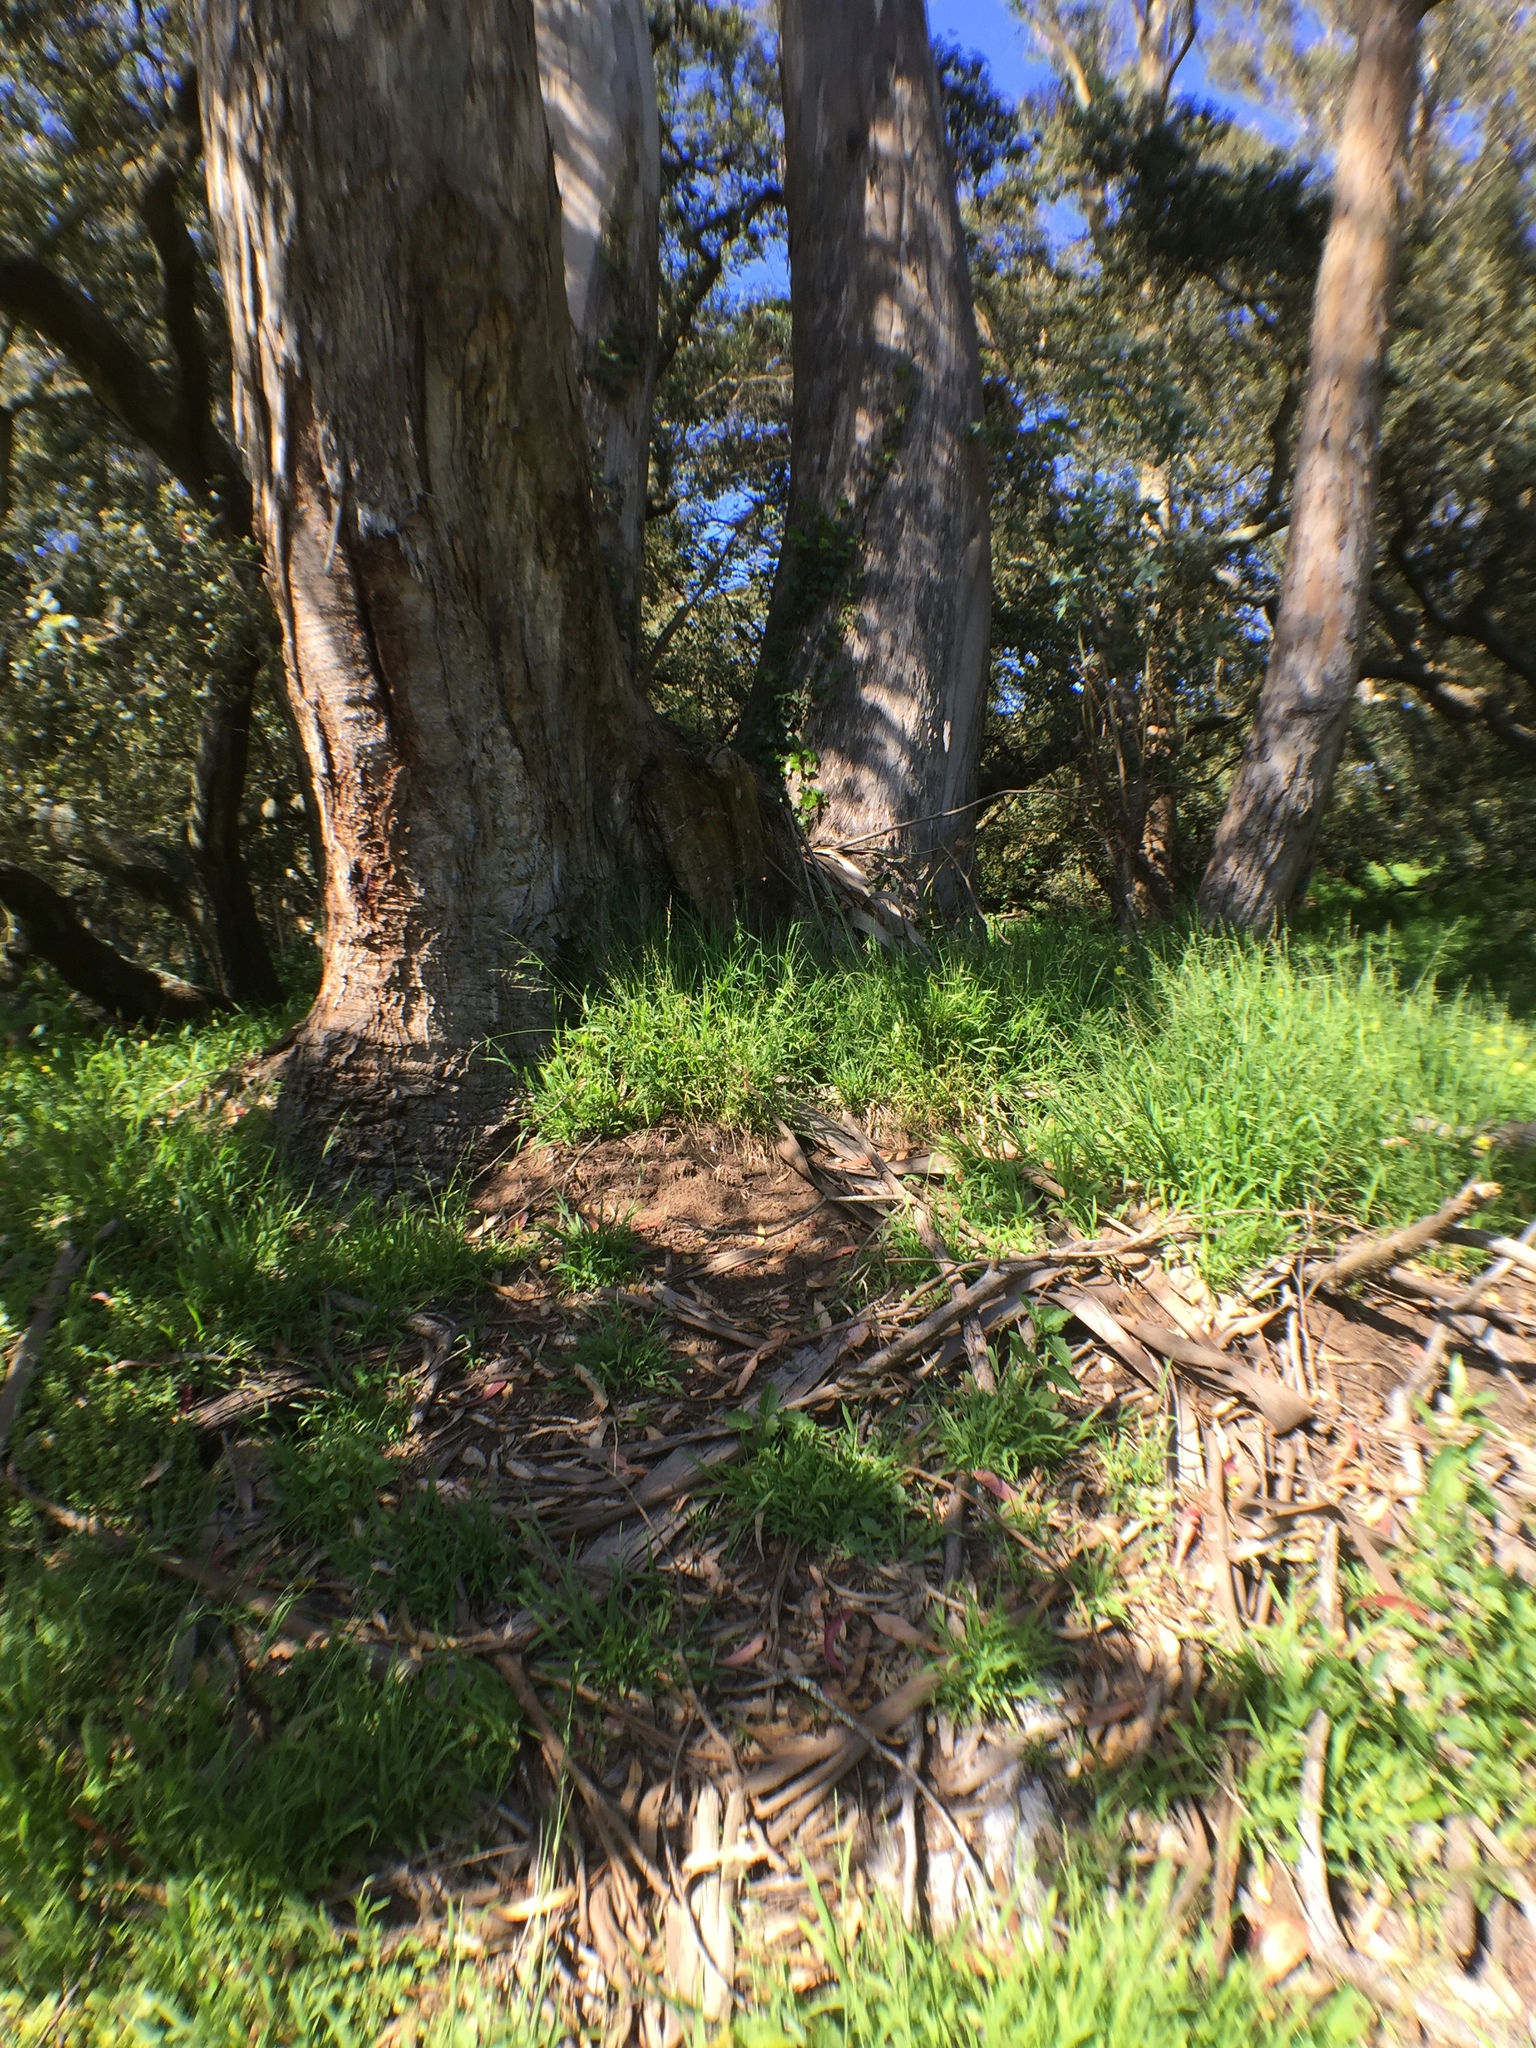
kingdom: Animalia
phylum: Arthropoda
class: Insecta
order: Hymenoptera
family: Apidae
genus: Apis
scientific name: Apis mellifera
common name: Honey bee
